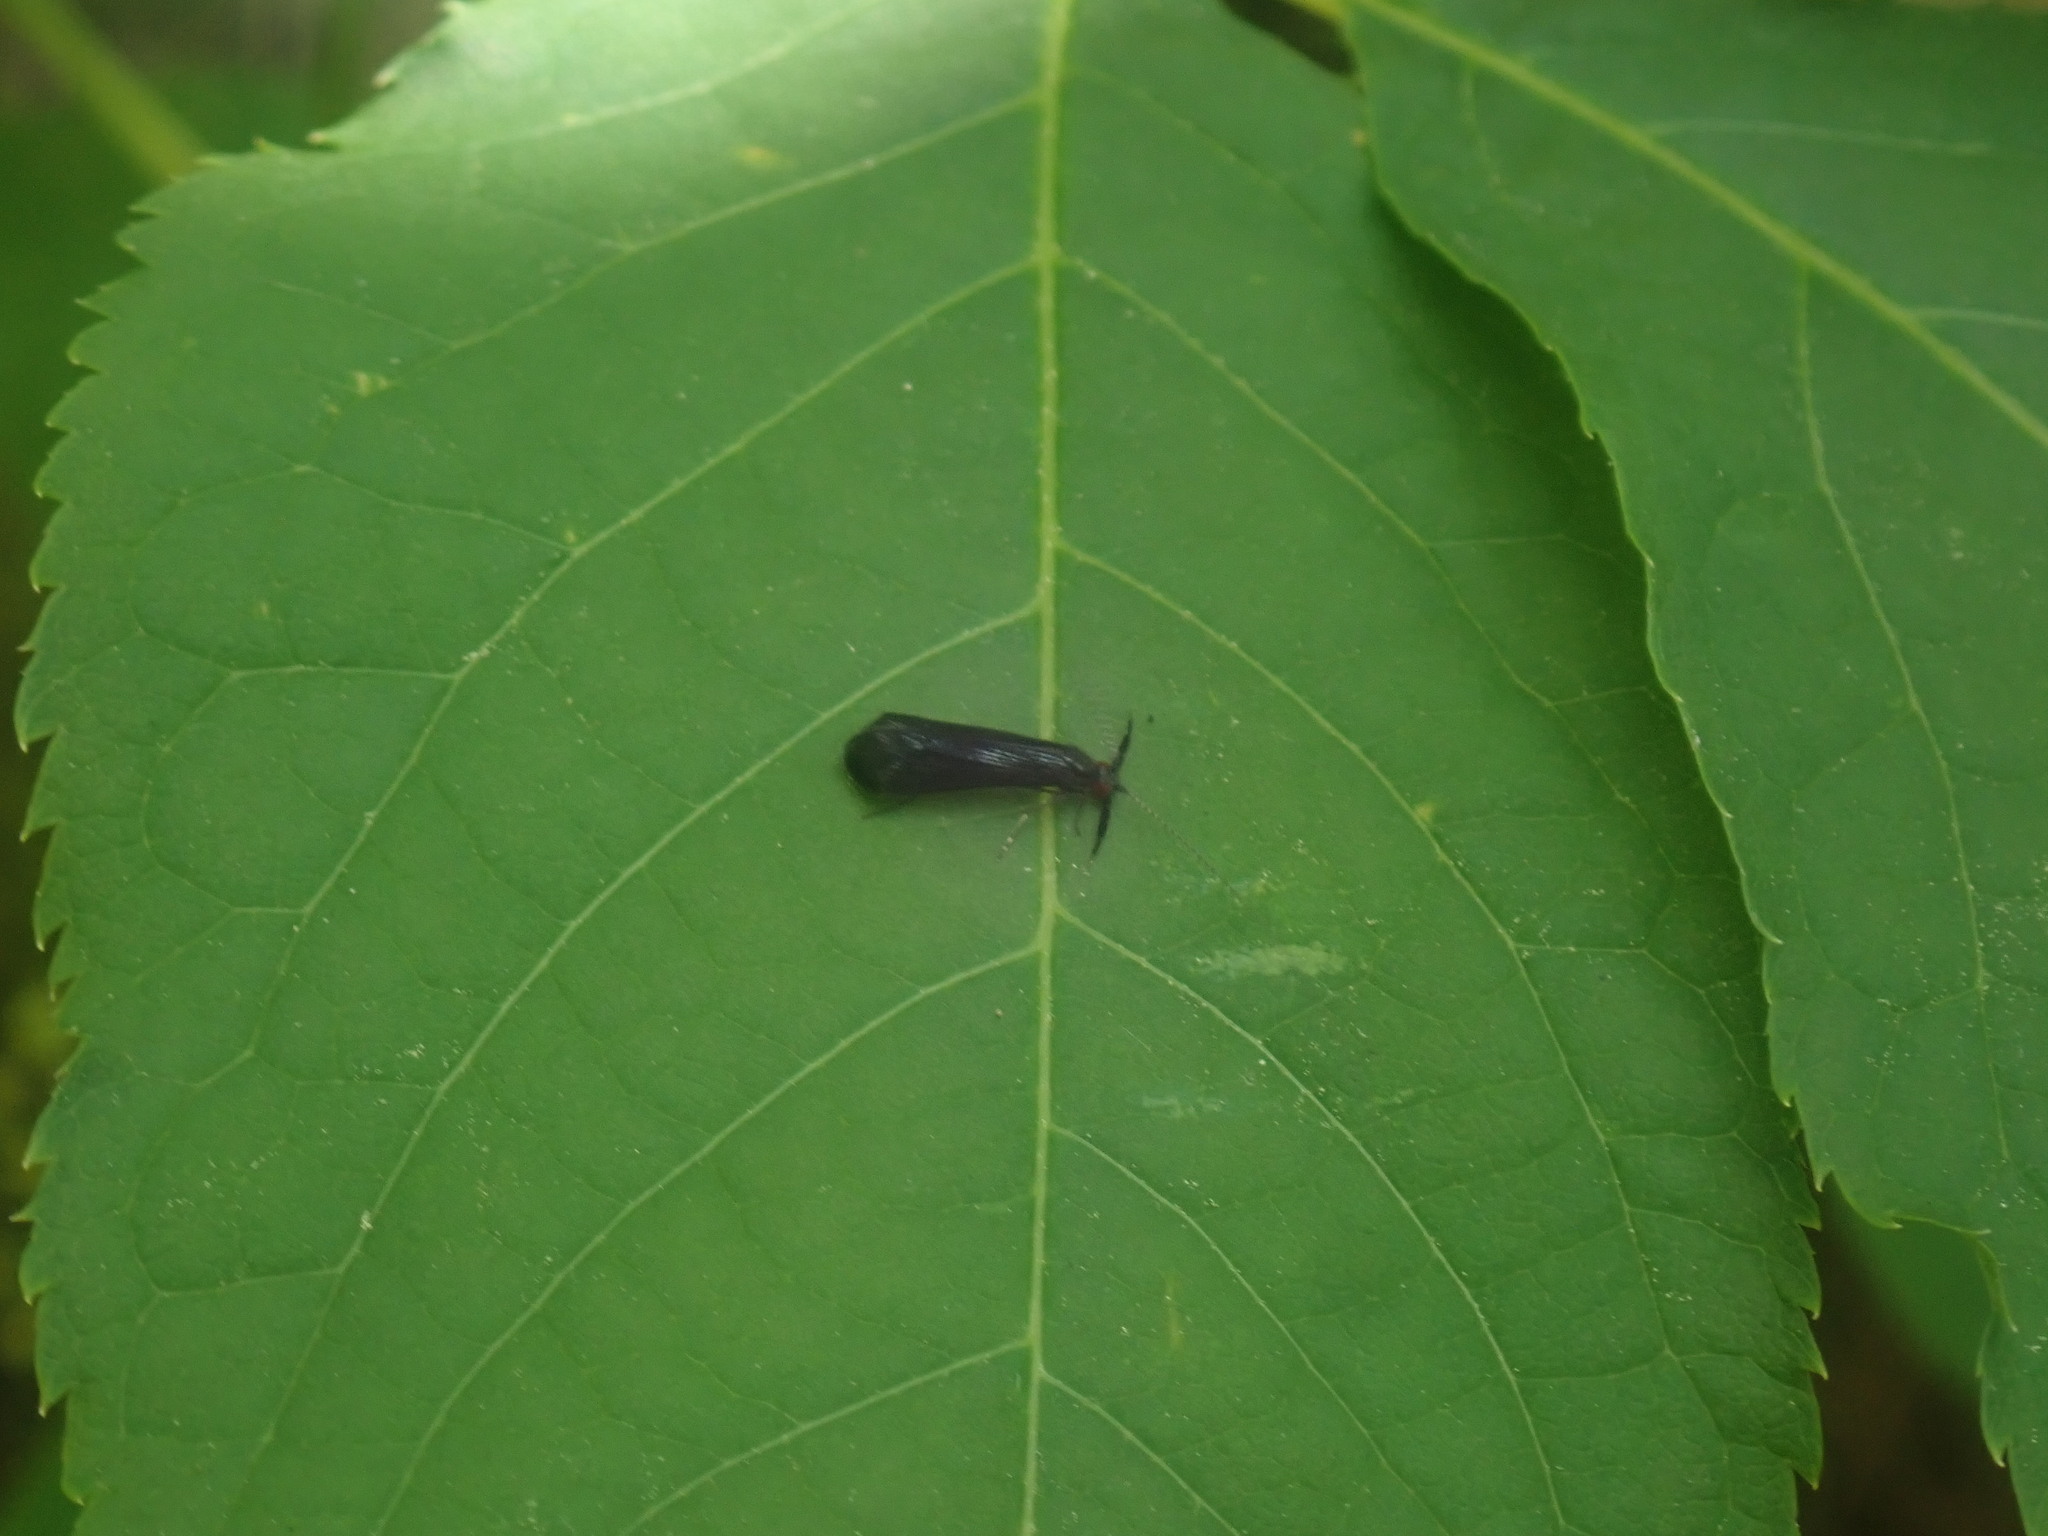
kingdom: Animalia
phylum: Arthropoda
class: Insecta
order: Trichoptera
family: Leptoceridae
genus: Mystacides
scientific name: Mystacides sepulchralis
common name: Black dancer caddisfly
